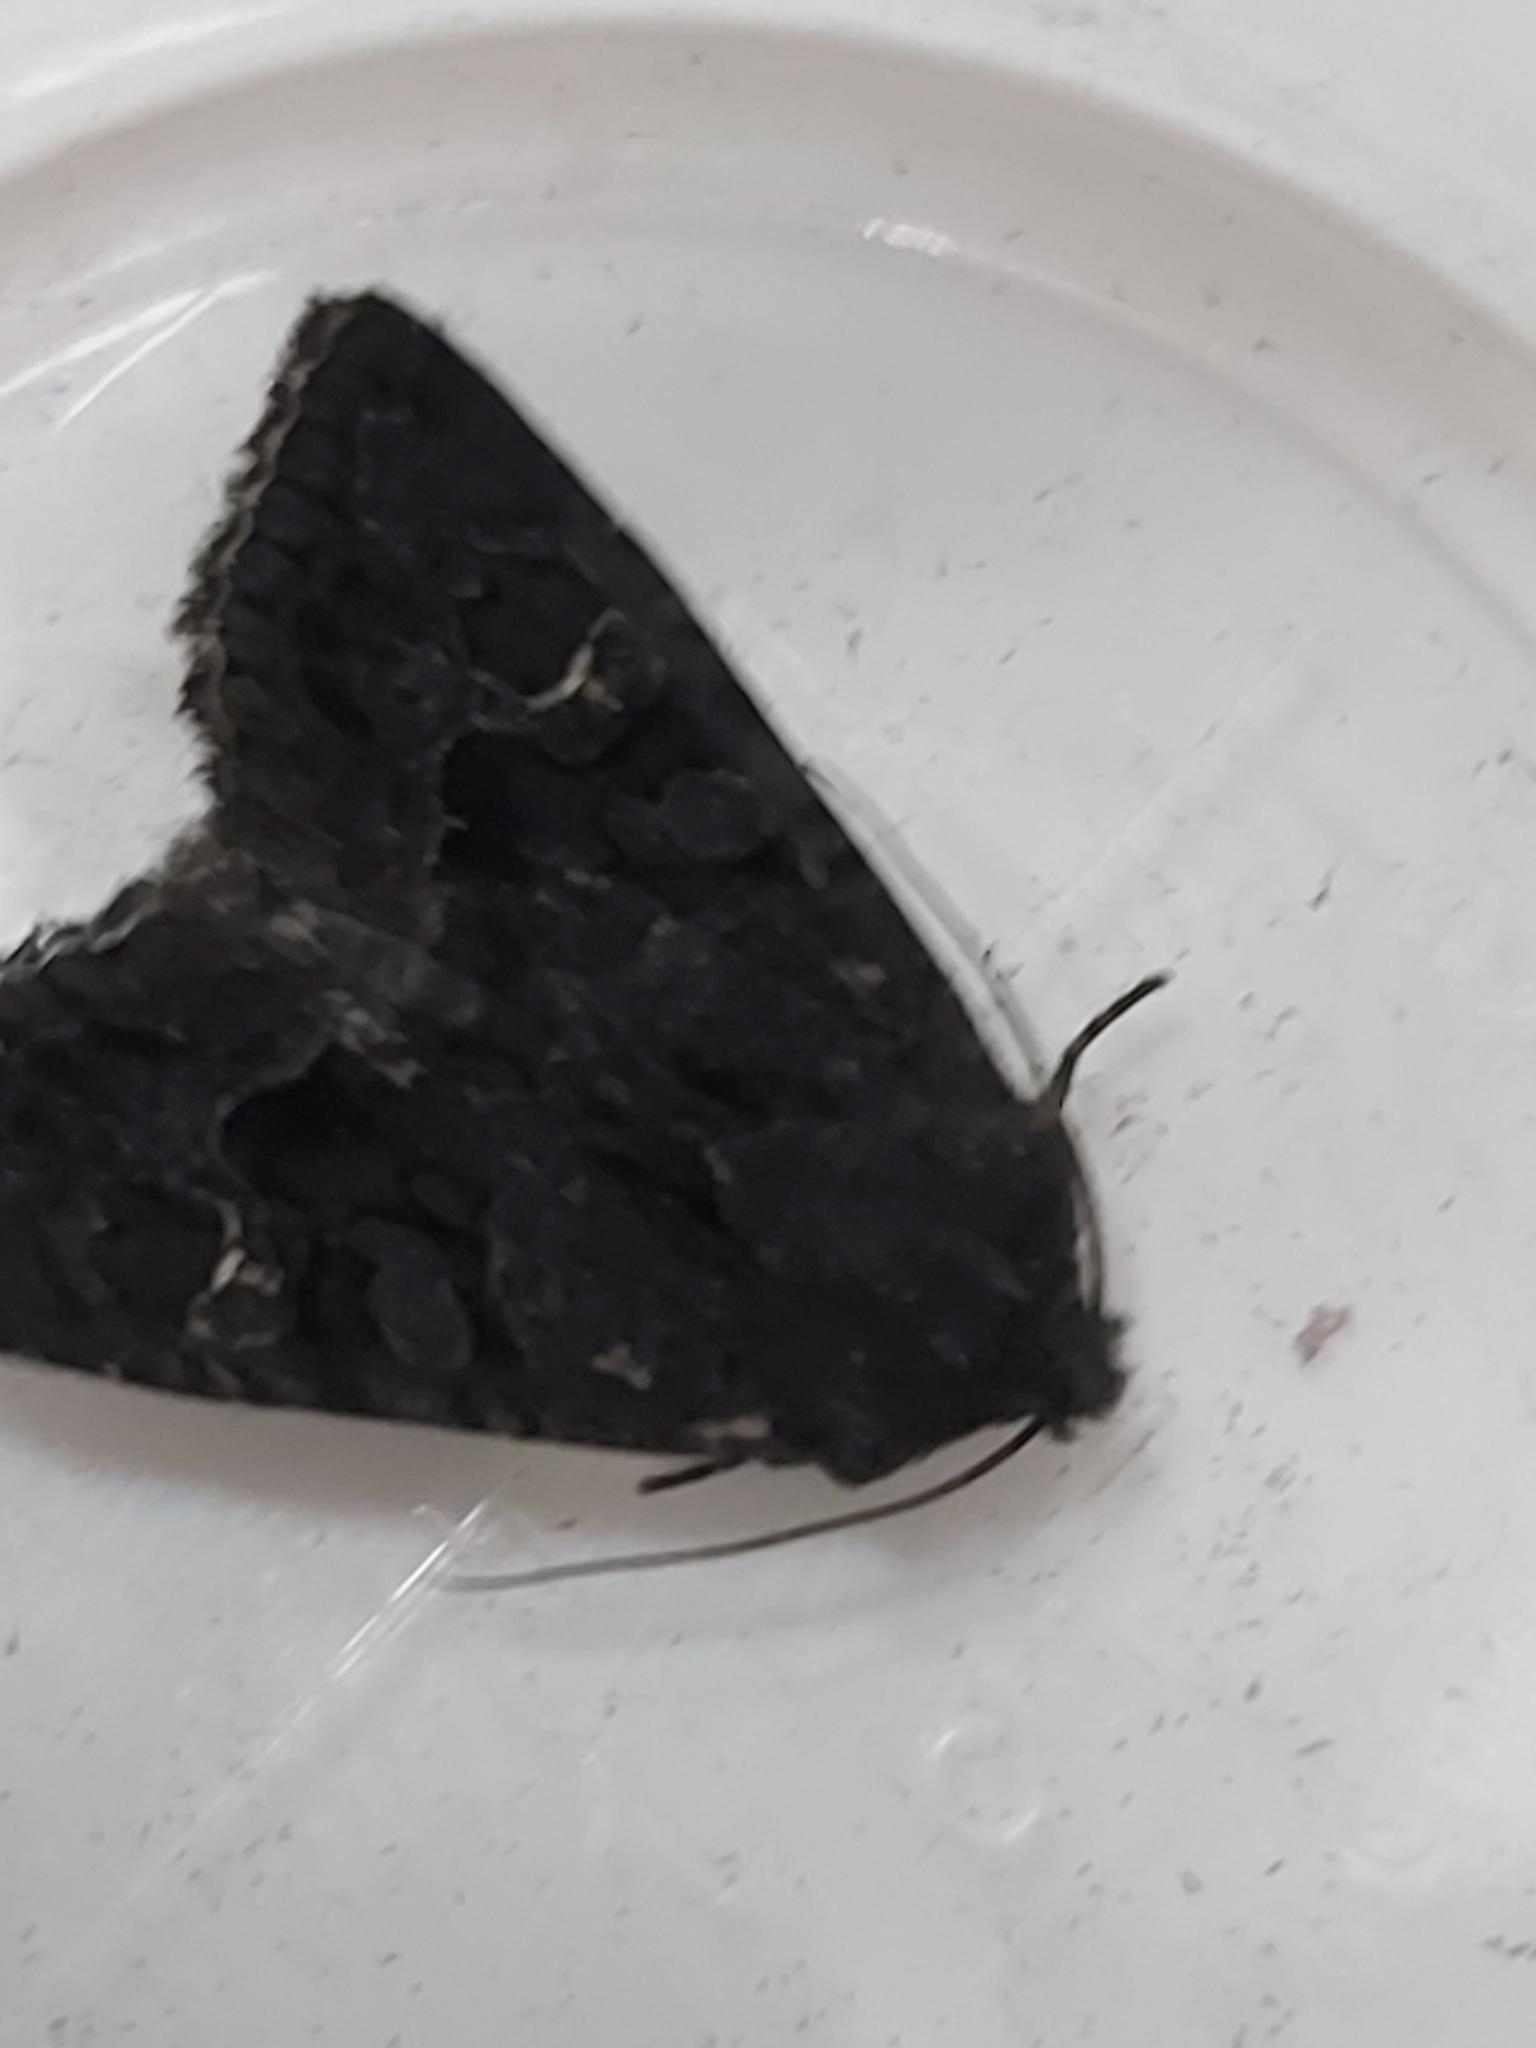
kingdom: Animalia
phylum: Arthropoda
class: Insecta
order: Lepidoptera
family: Noctuidae
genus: Neumichtis
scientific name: Neumichtis nigerrima
